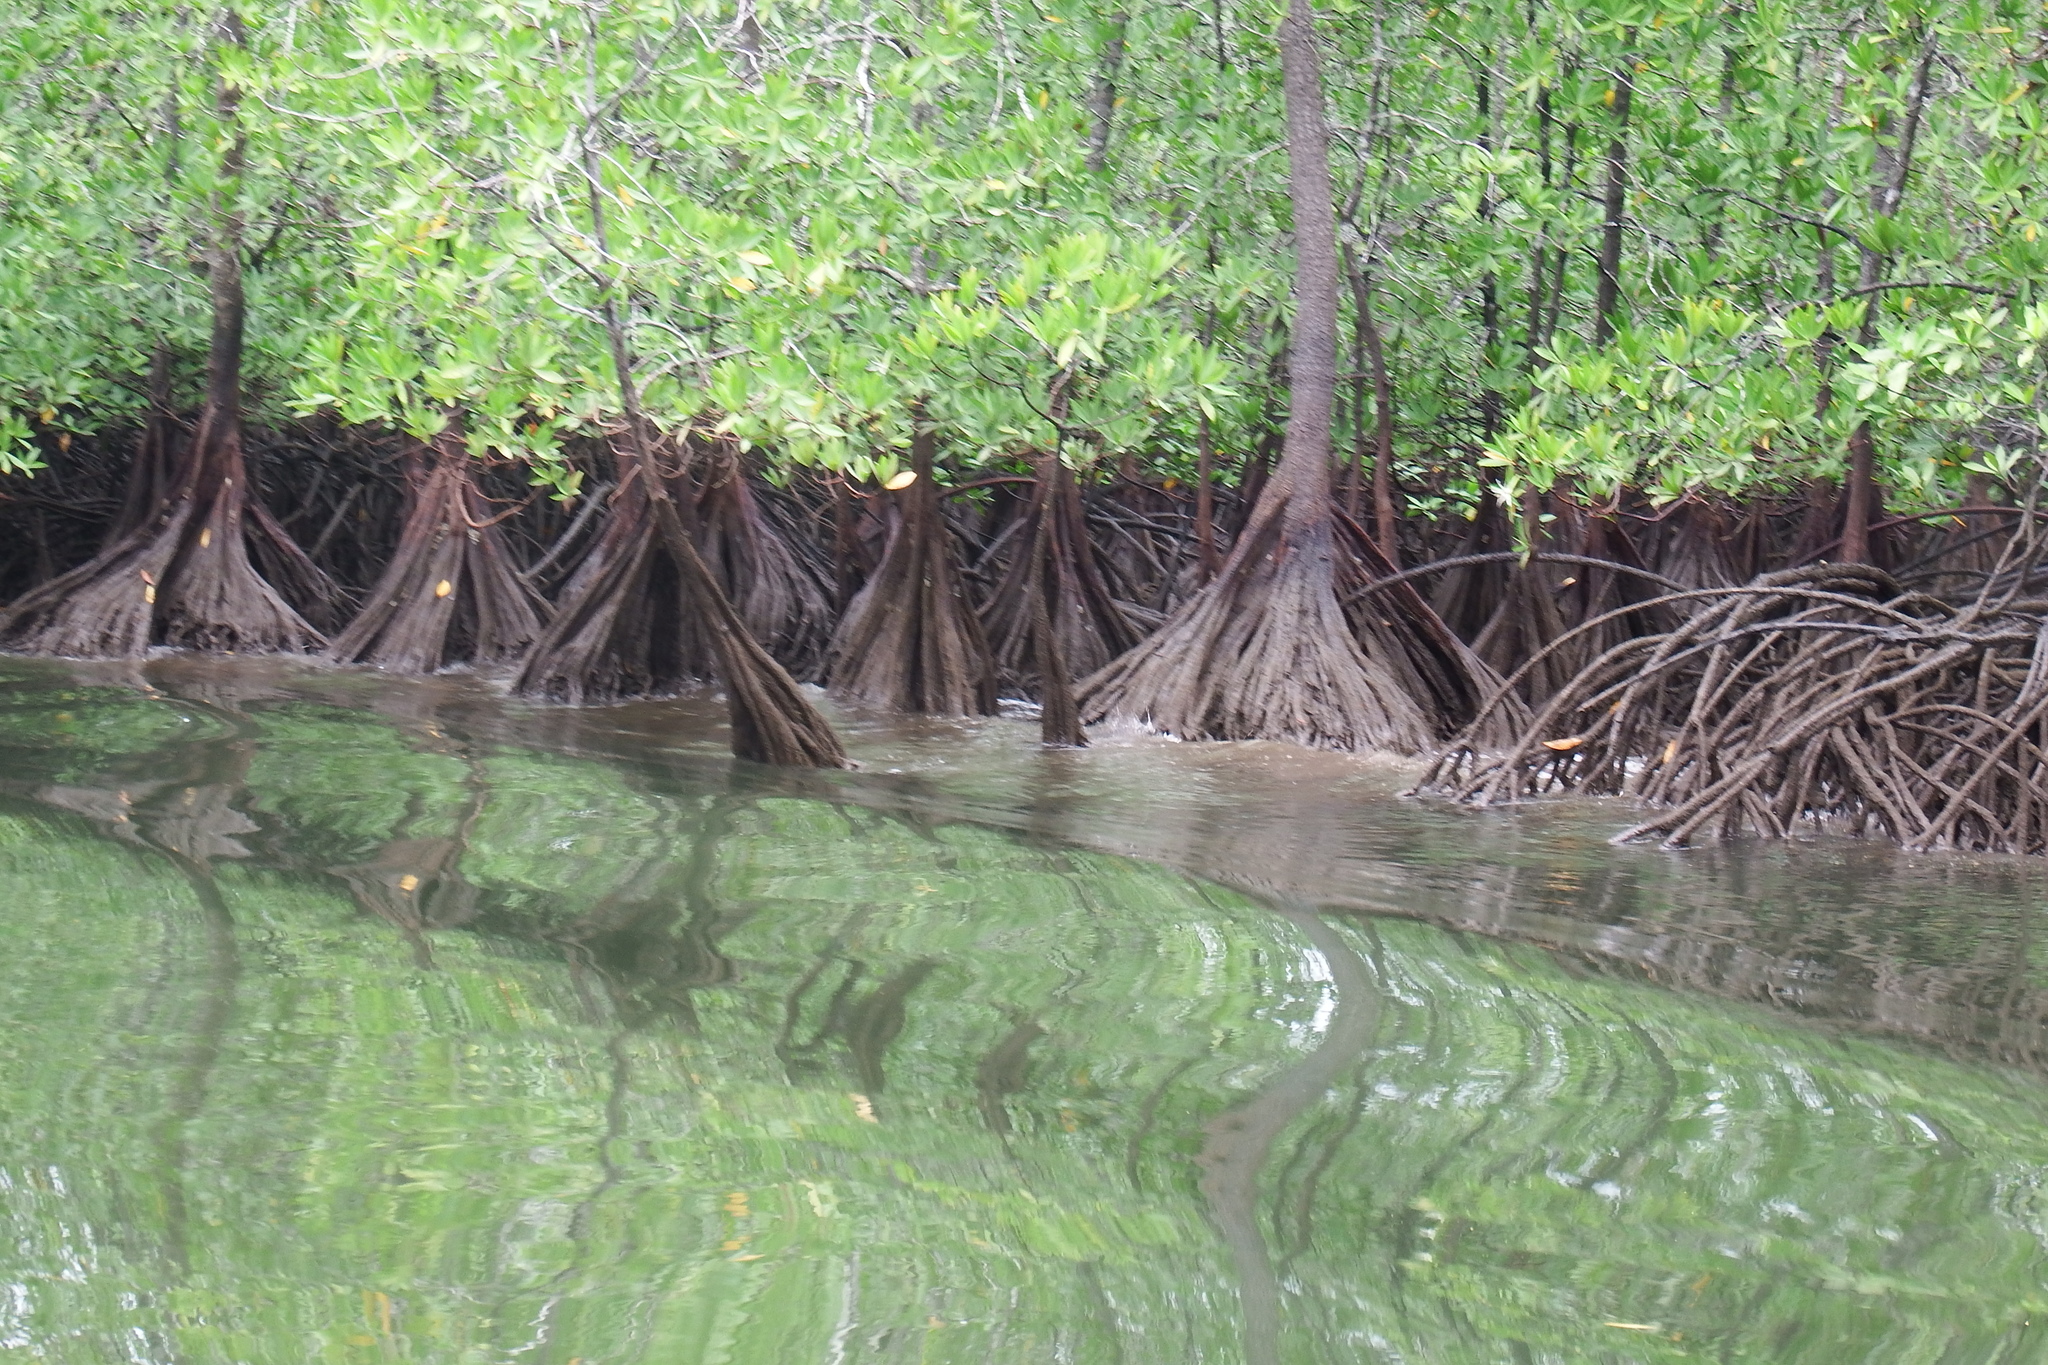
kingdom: Plantae
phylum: Tracheophyta
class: Magnoliopsida
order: Ericales
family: Tetrameristaceae
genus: Pelliciera
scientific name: Pelliciera rhizophorae
